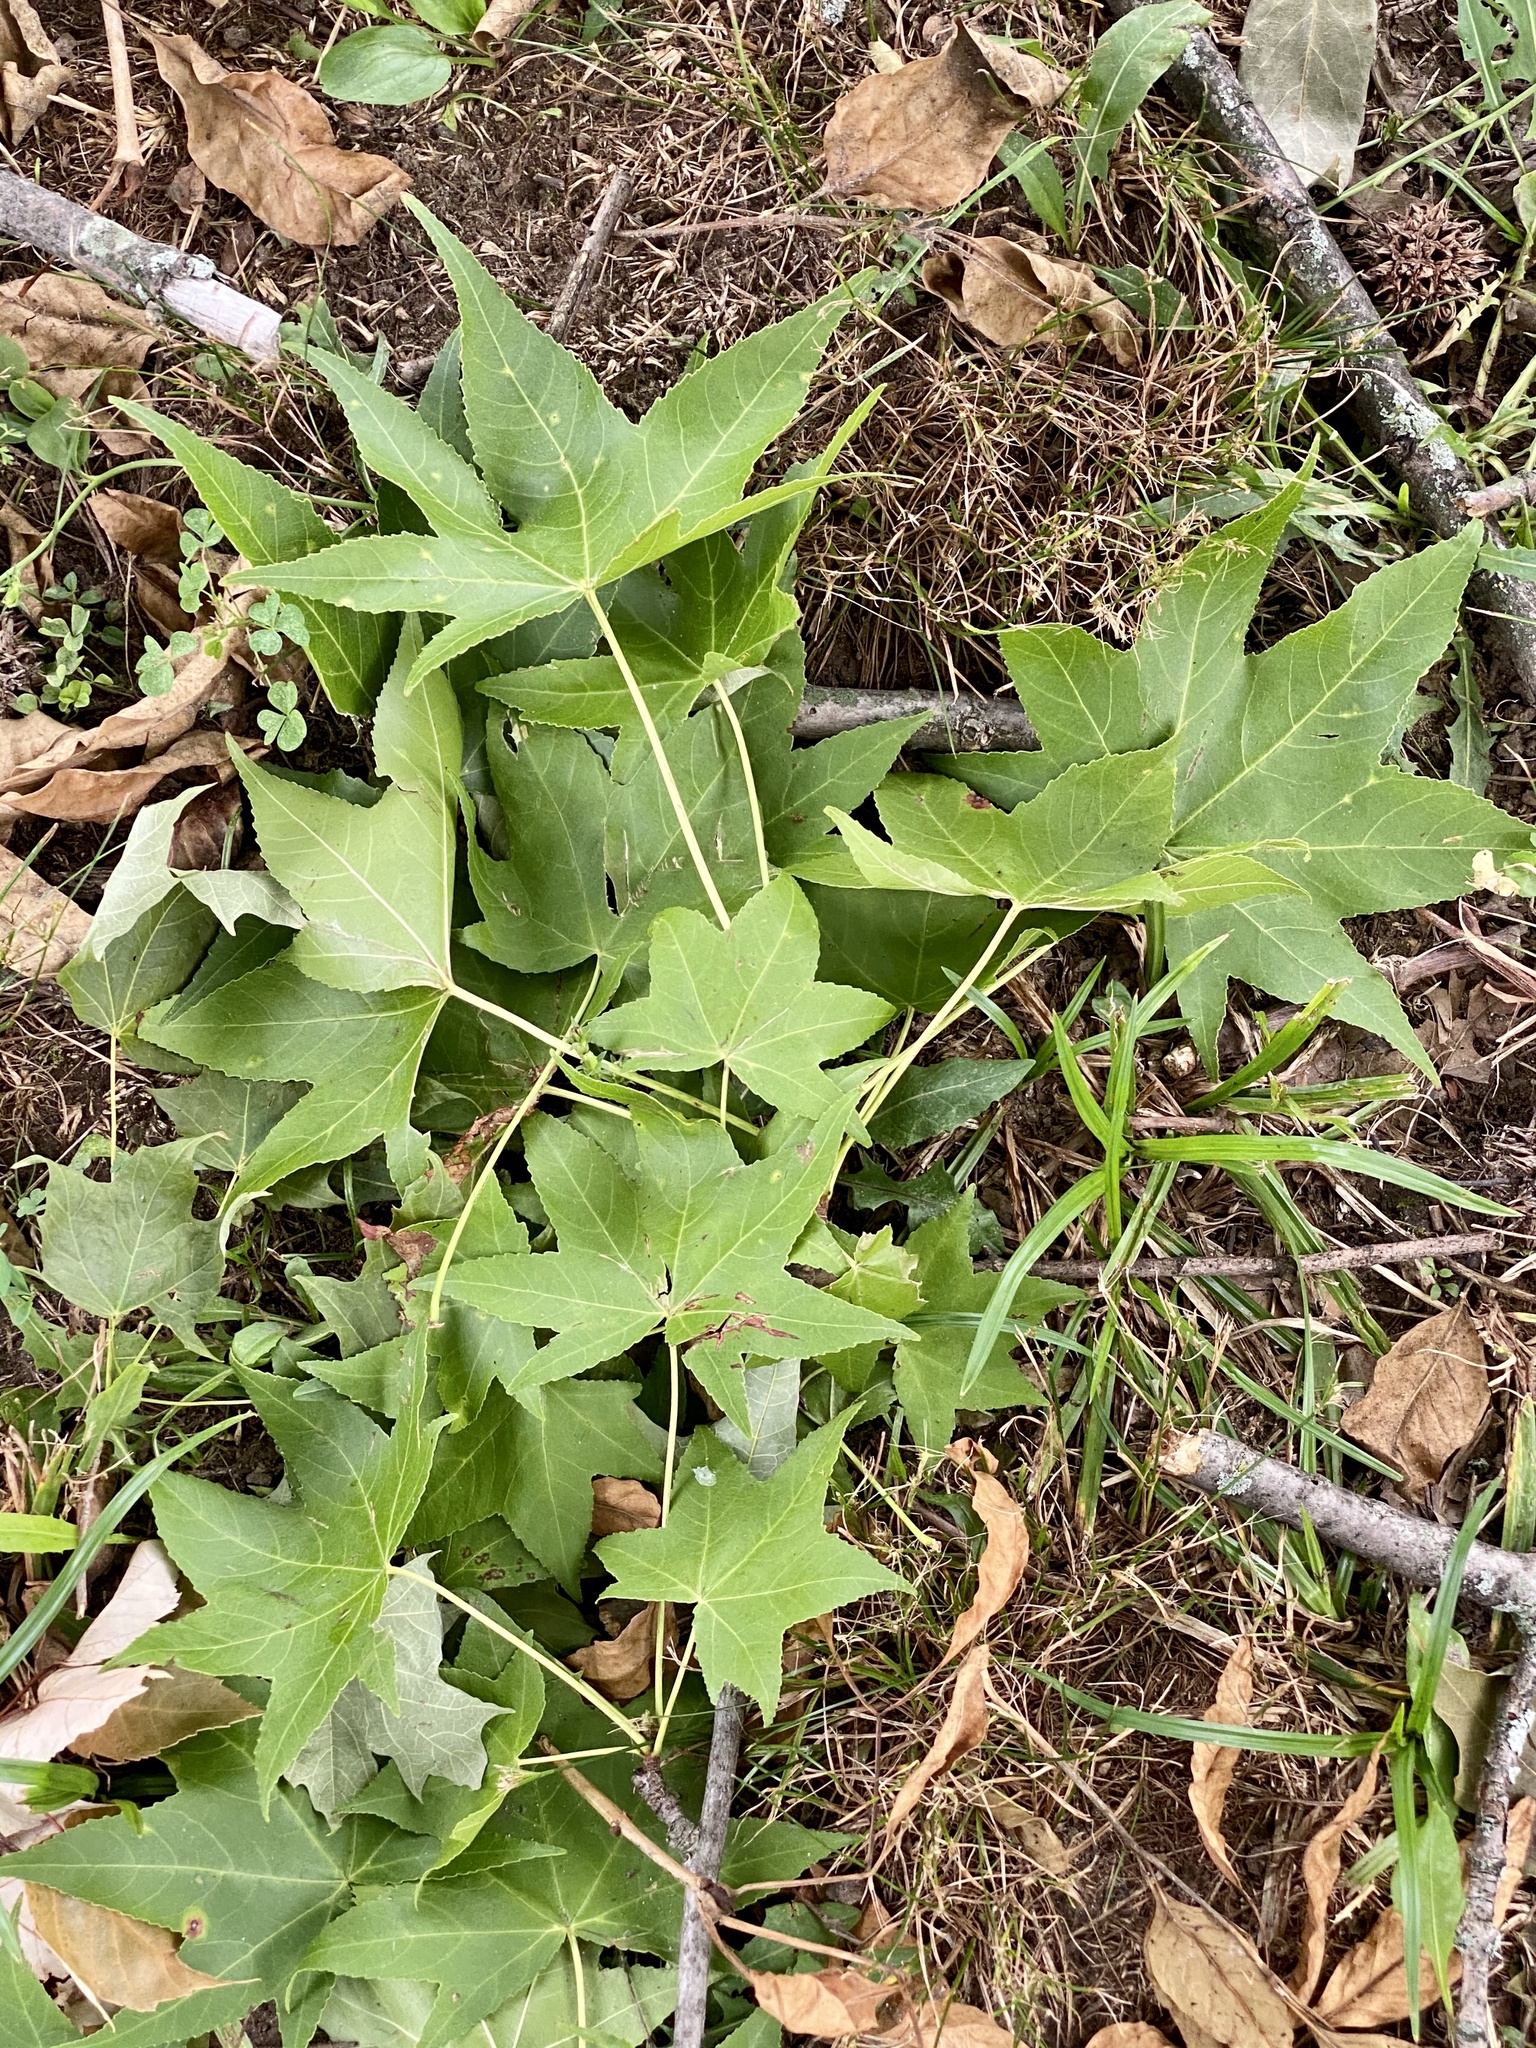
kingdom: Plantae
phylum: Tracheophyta
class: Magnoliopsida
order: Saxifragales
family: Altingiaceae
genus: Liquidambar
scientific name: Liquidambar styraciflua
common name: Sweet gum
